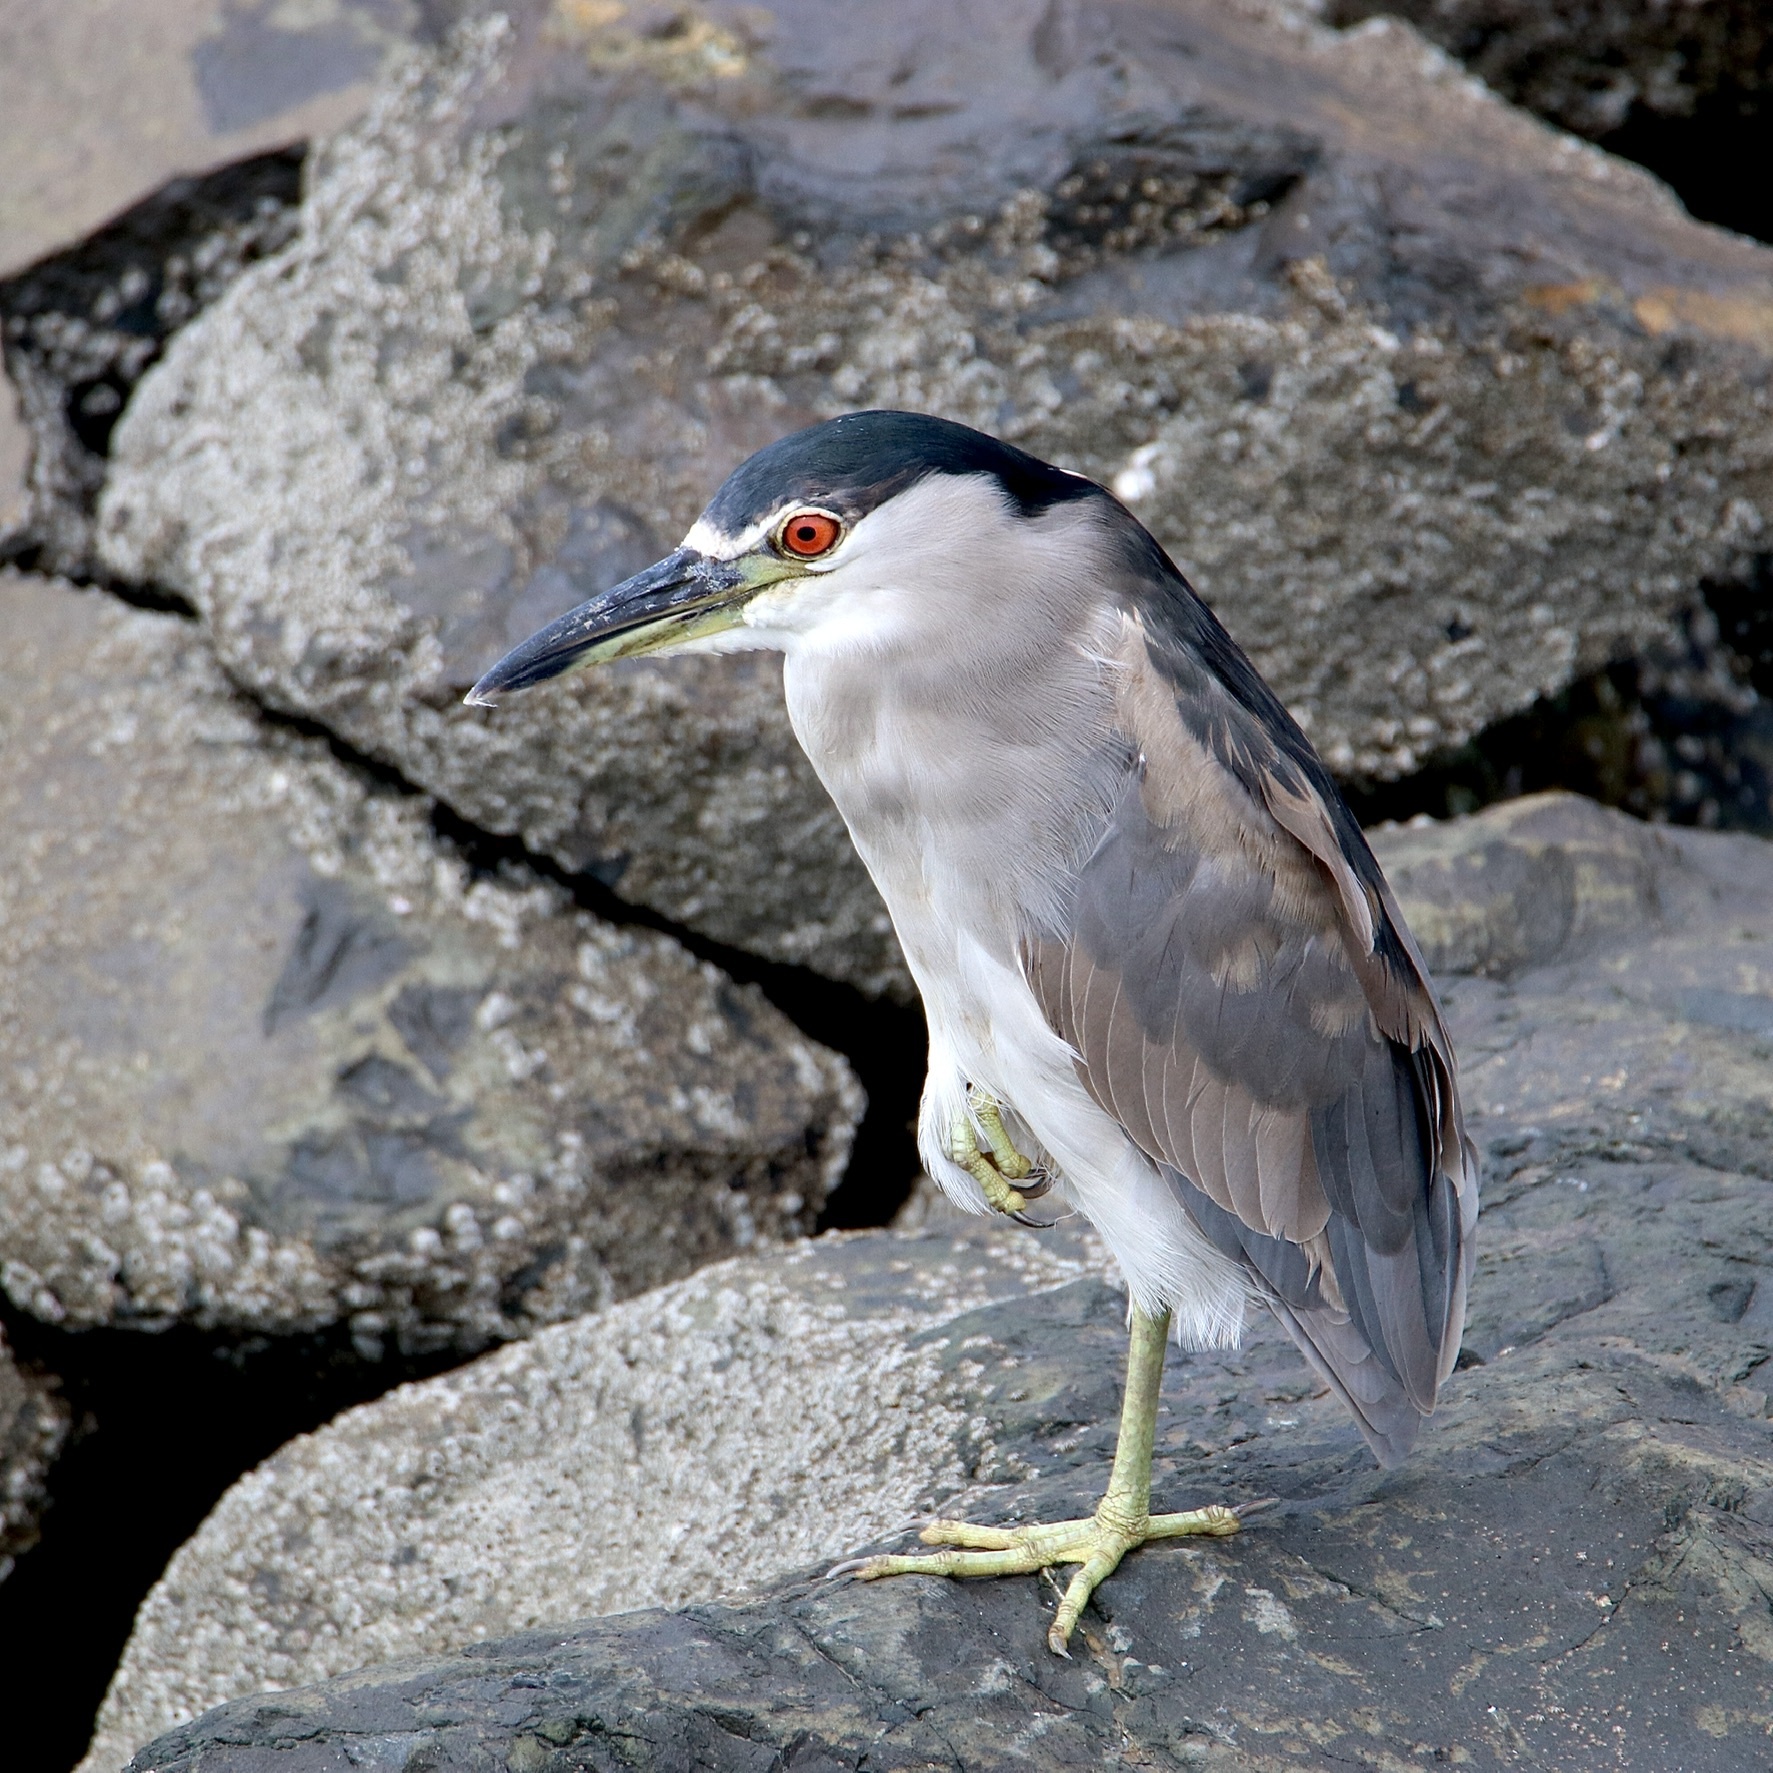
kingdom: Animalia
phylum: Chordata
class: Aves
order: Pelecaniformes
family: Ardeidae
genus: Nycticorax
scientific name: Nycticorax nycticorax
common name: Black-crowned night heron
